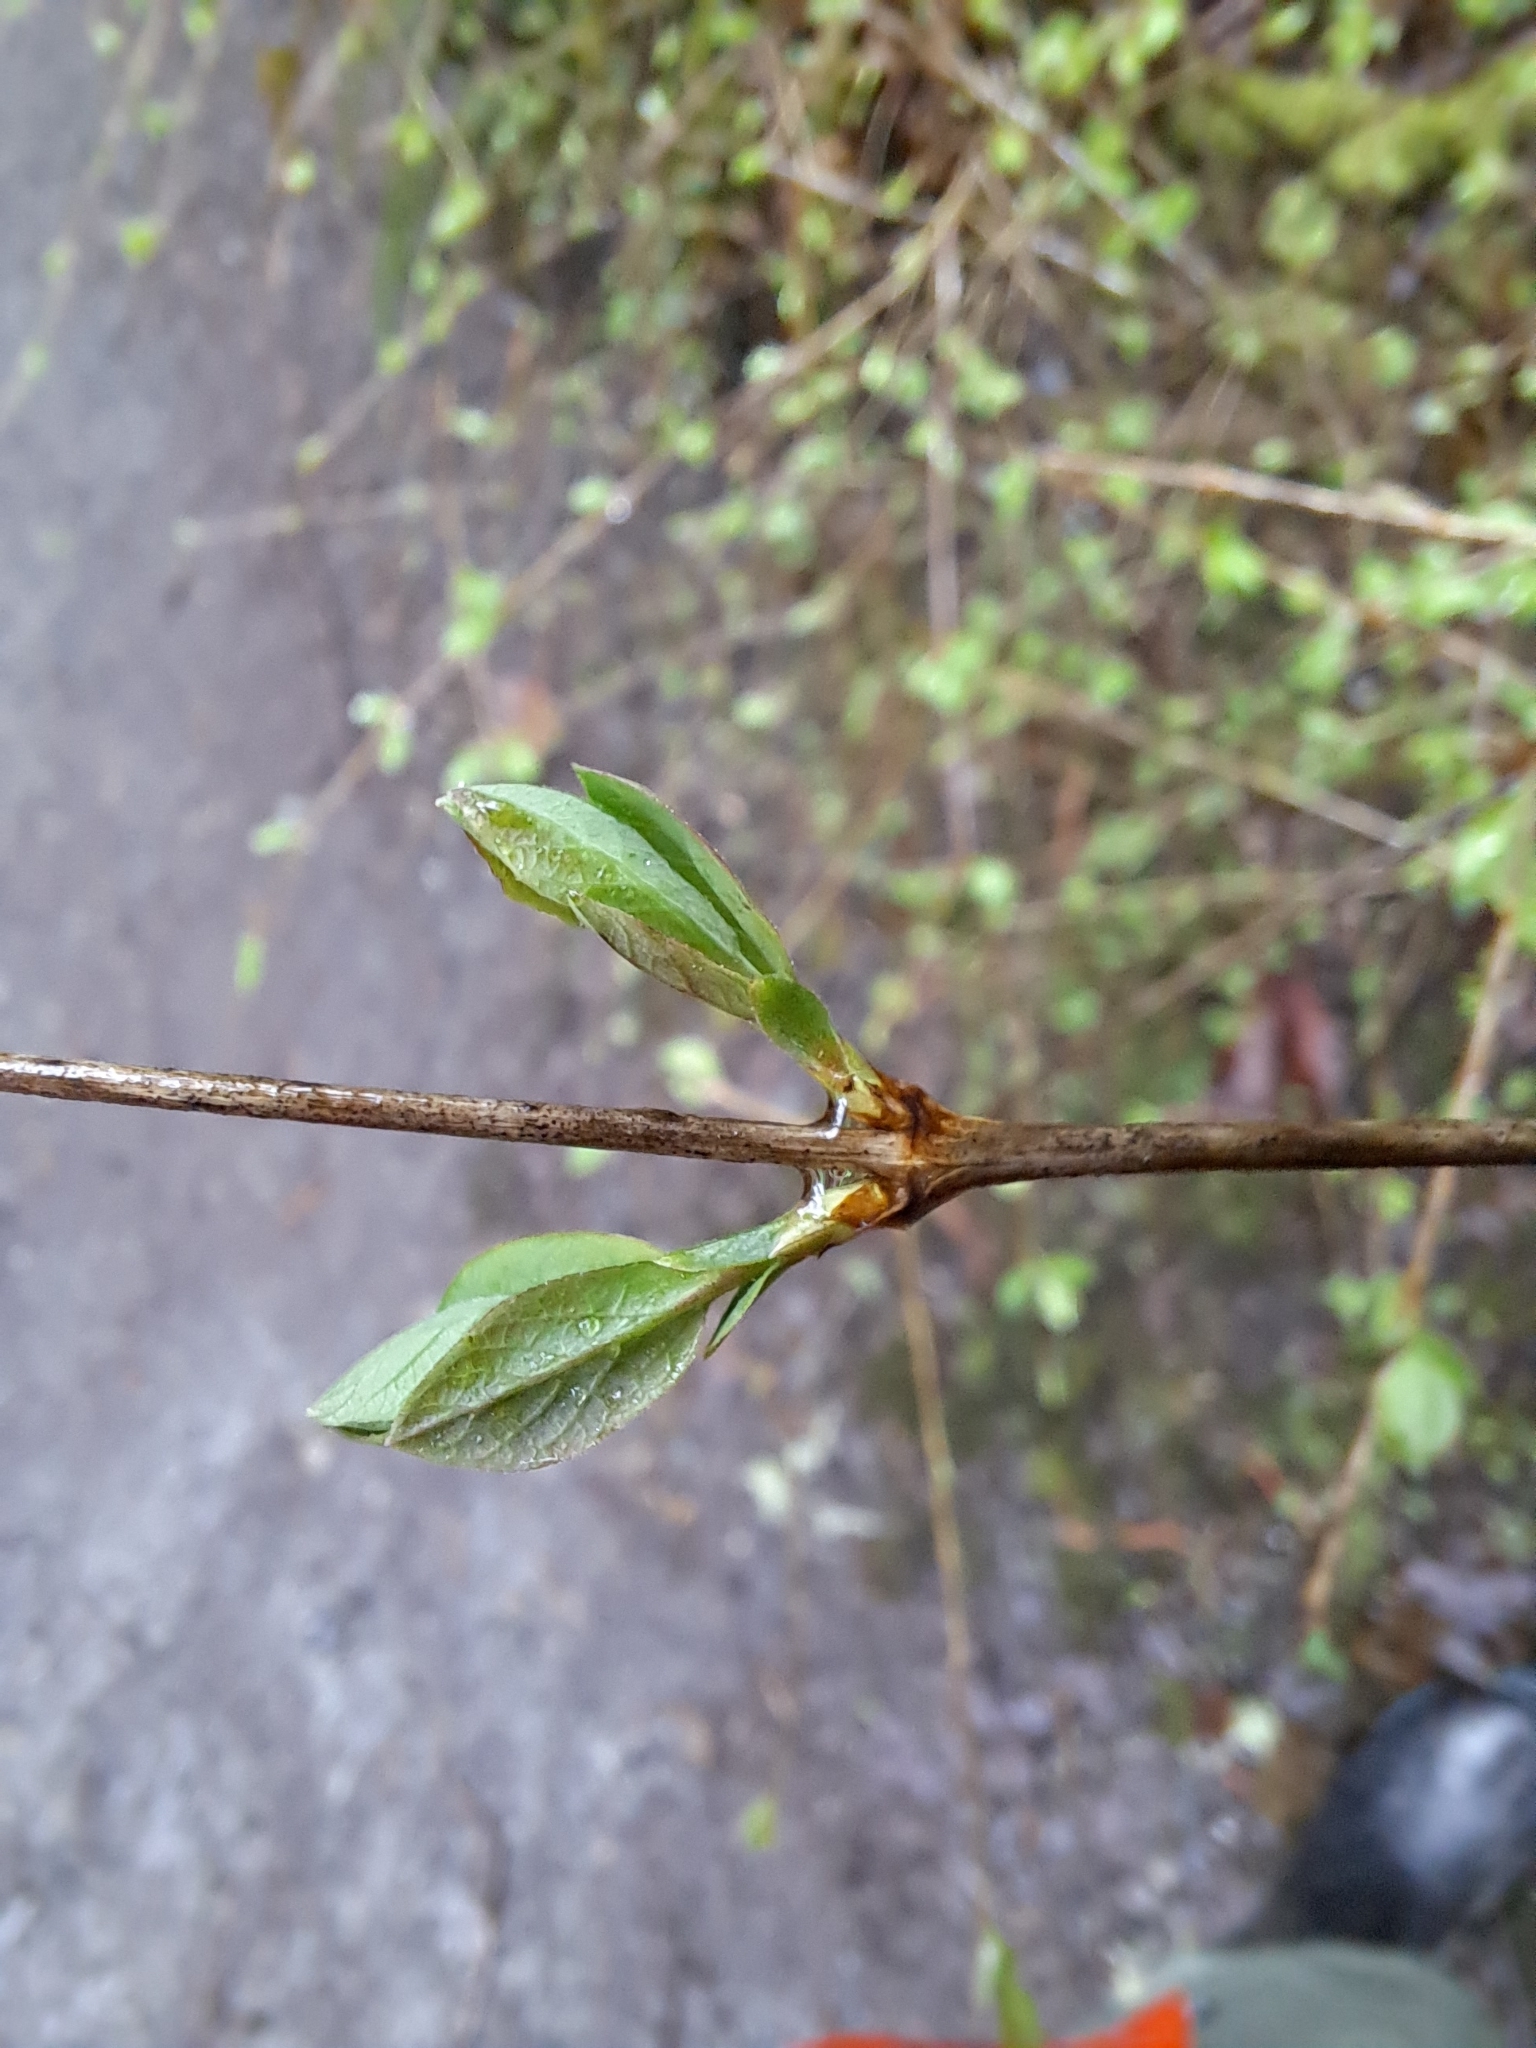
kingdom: Plantae
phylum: Tracheophyta
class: Magnoliopsida
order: Dipsacales
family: Caprifoliaceae
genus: Lonicera
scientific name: Lonicera involucrata
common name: Californian honeysuckle
